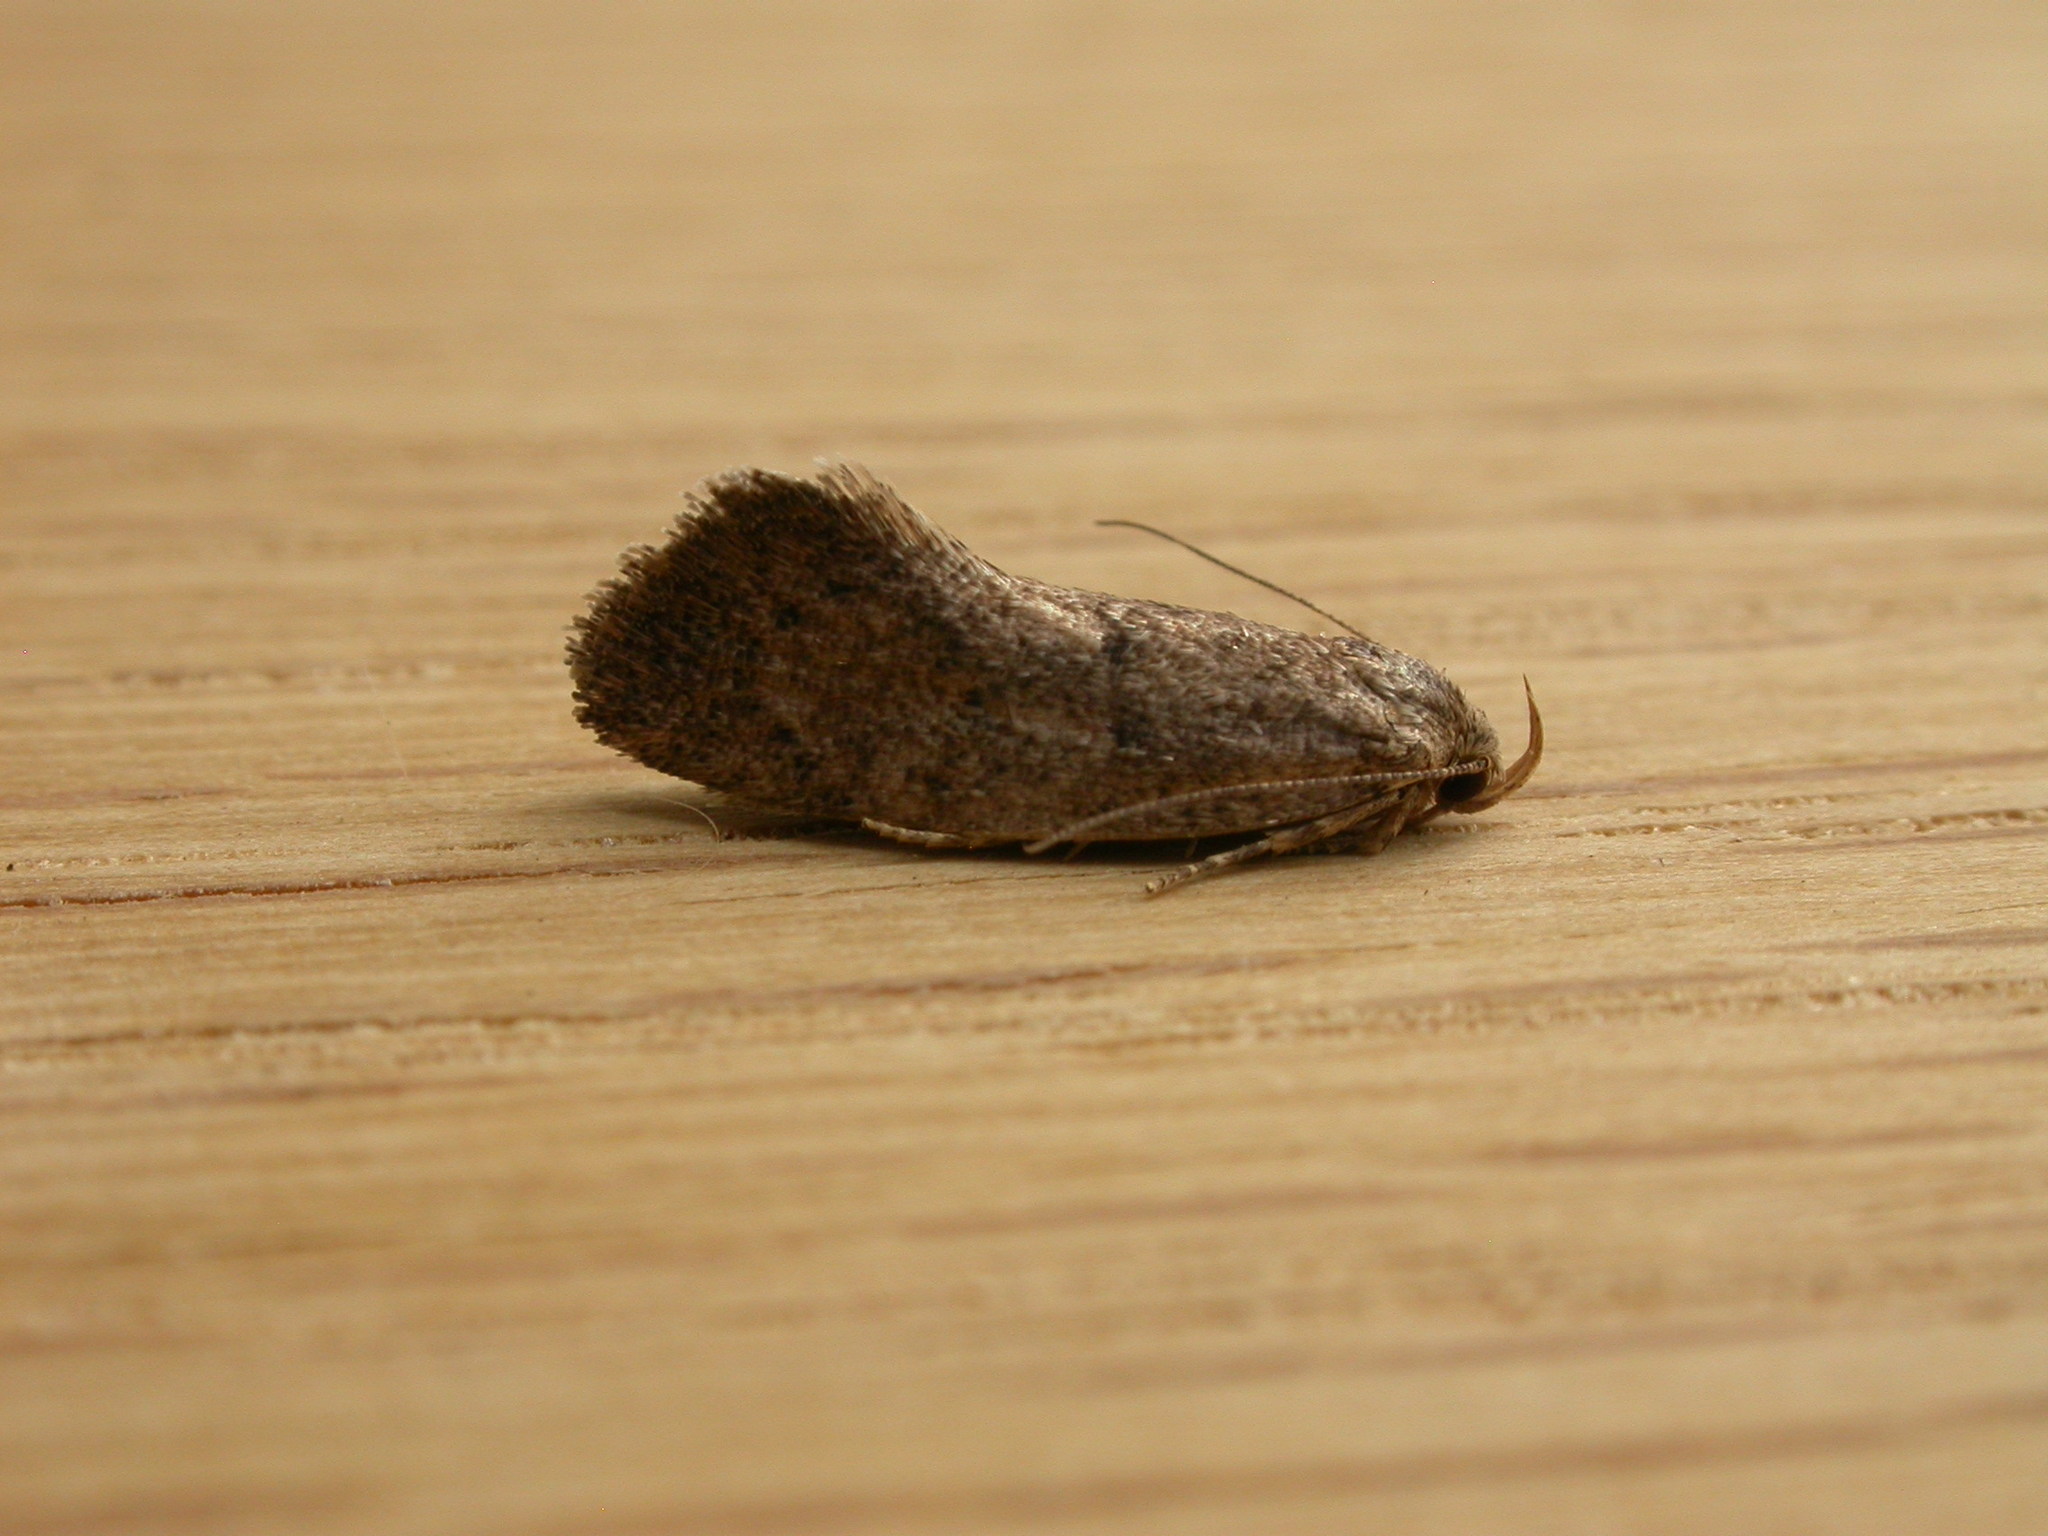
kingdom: Animalia
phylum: Arthropoda
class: Insecta
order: Lepidoptera
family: Oecophoridae
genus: Syncometes
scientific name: Syncometes vilis
